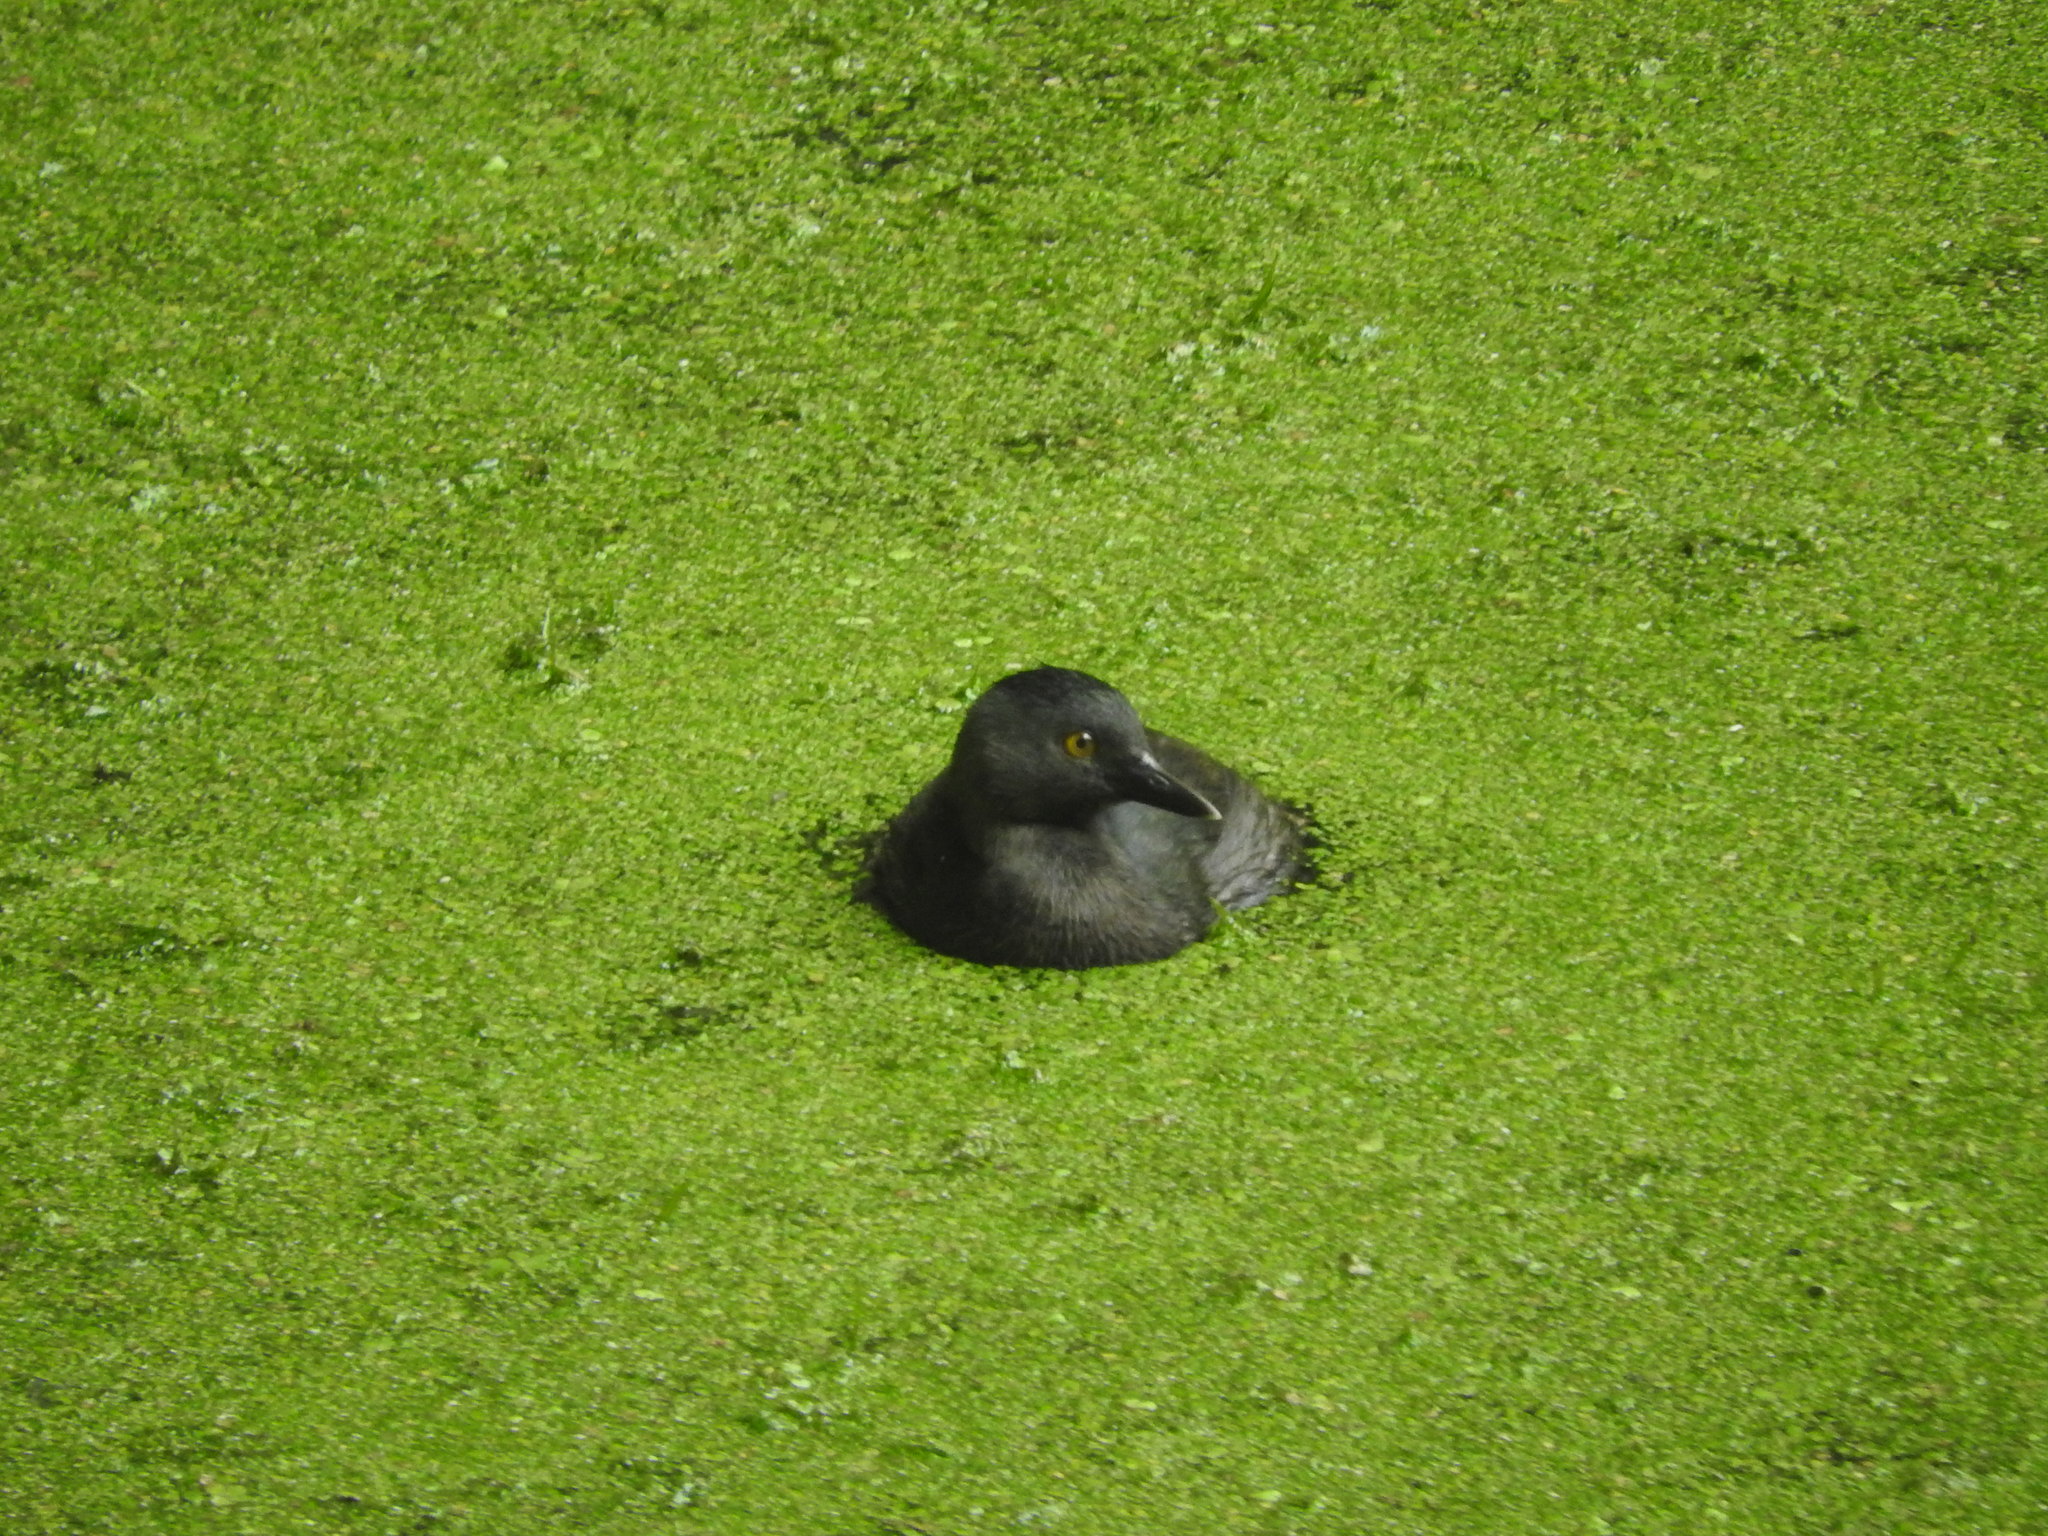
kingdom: Animalia
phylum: Chordata
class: Aves
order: Podicipediformes
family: Podicipedidae
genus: Tachybaptus
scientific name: Tachybaptus dominicus
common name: Least grebe
